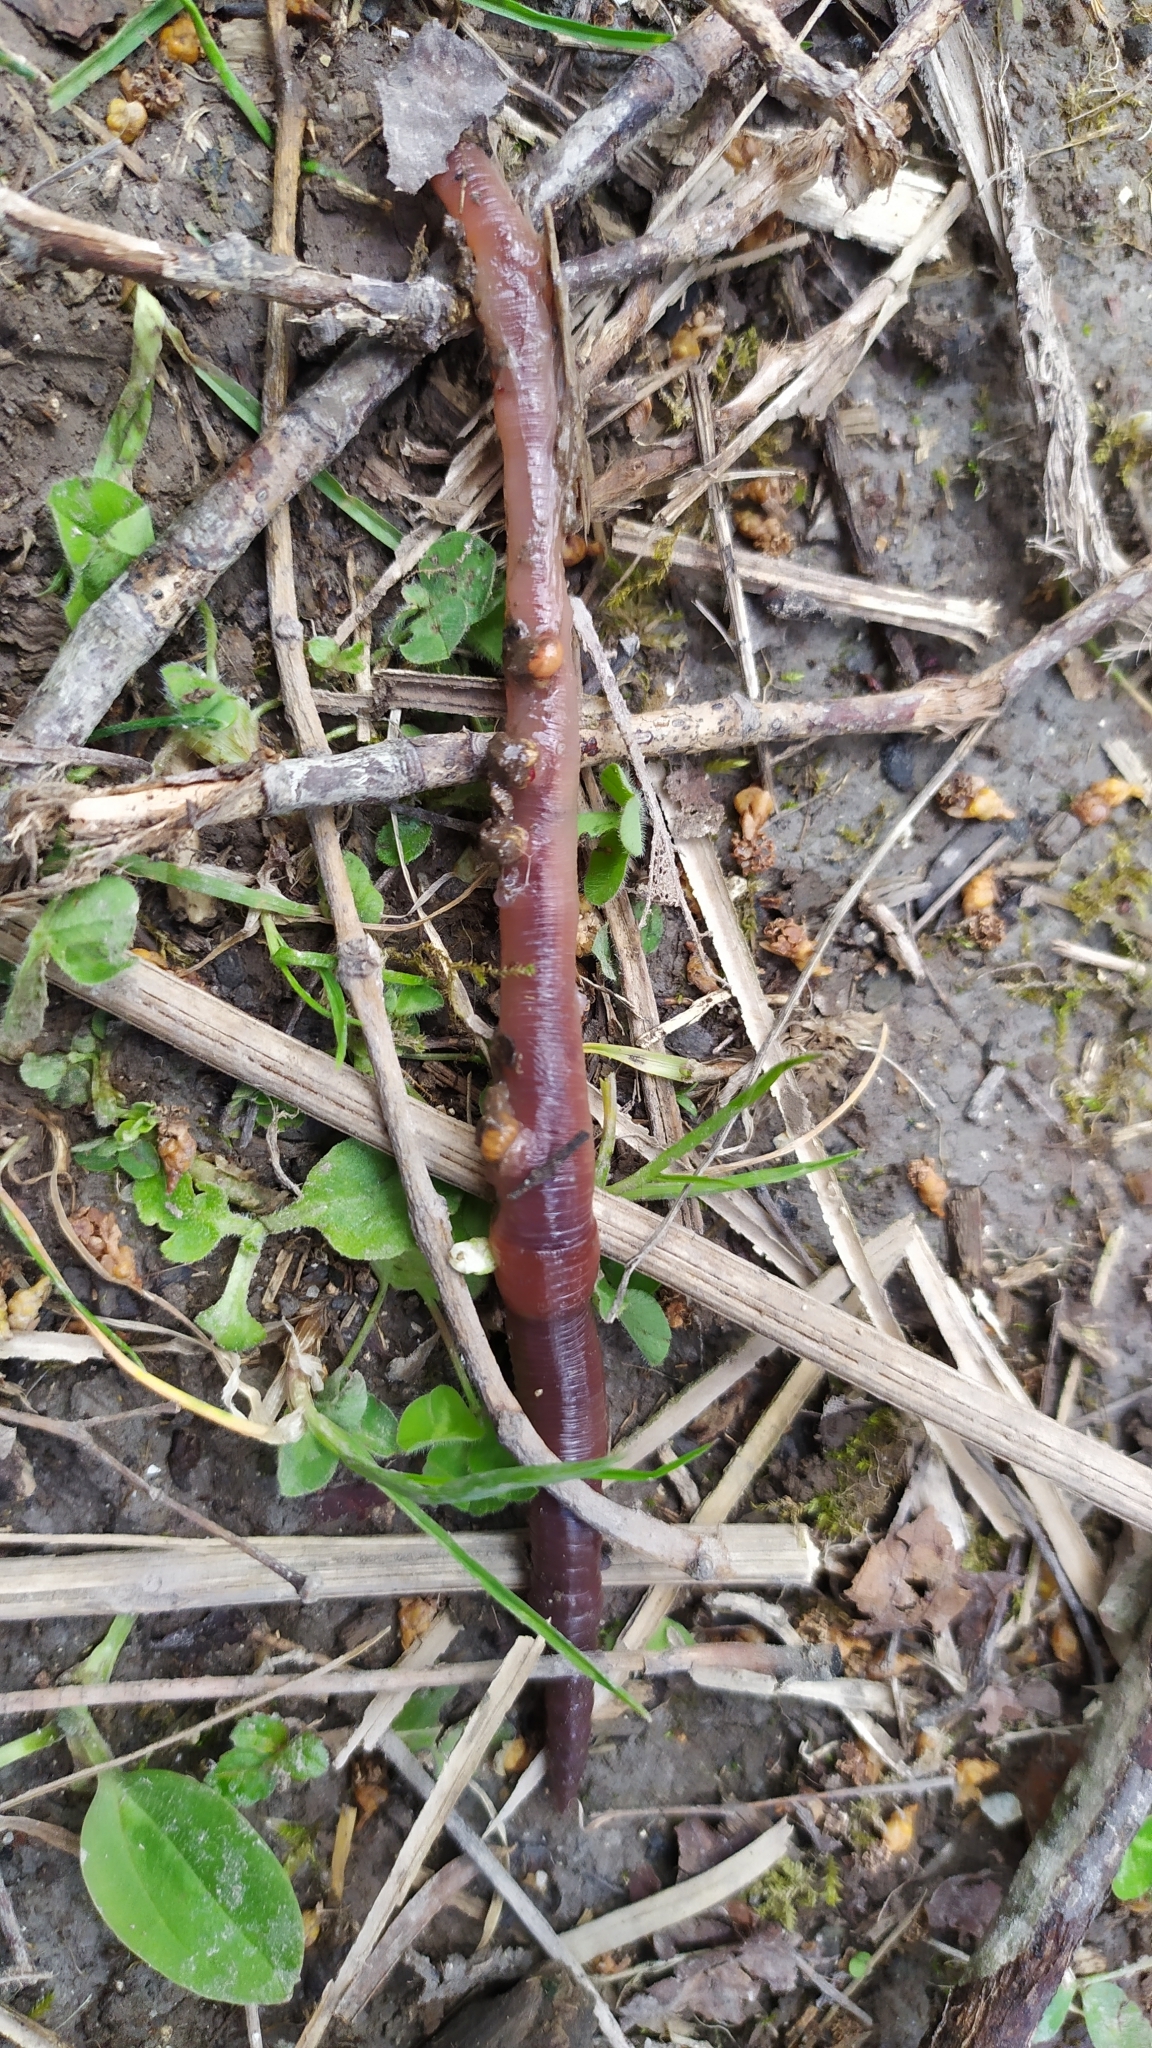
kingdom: Animalia
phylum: Annelida
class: Clitellata
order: Crassiclitellata
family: Lumbricidae
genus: Lumbricus
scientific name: Lumbricus terrestris
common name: Common earthworm
